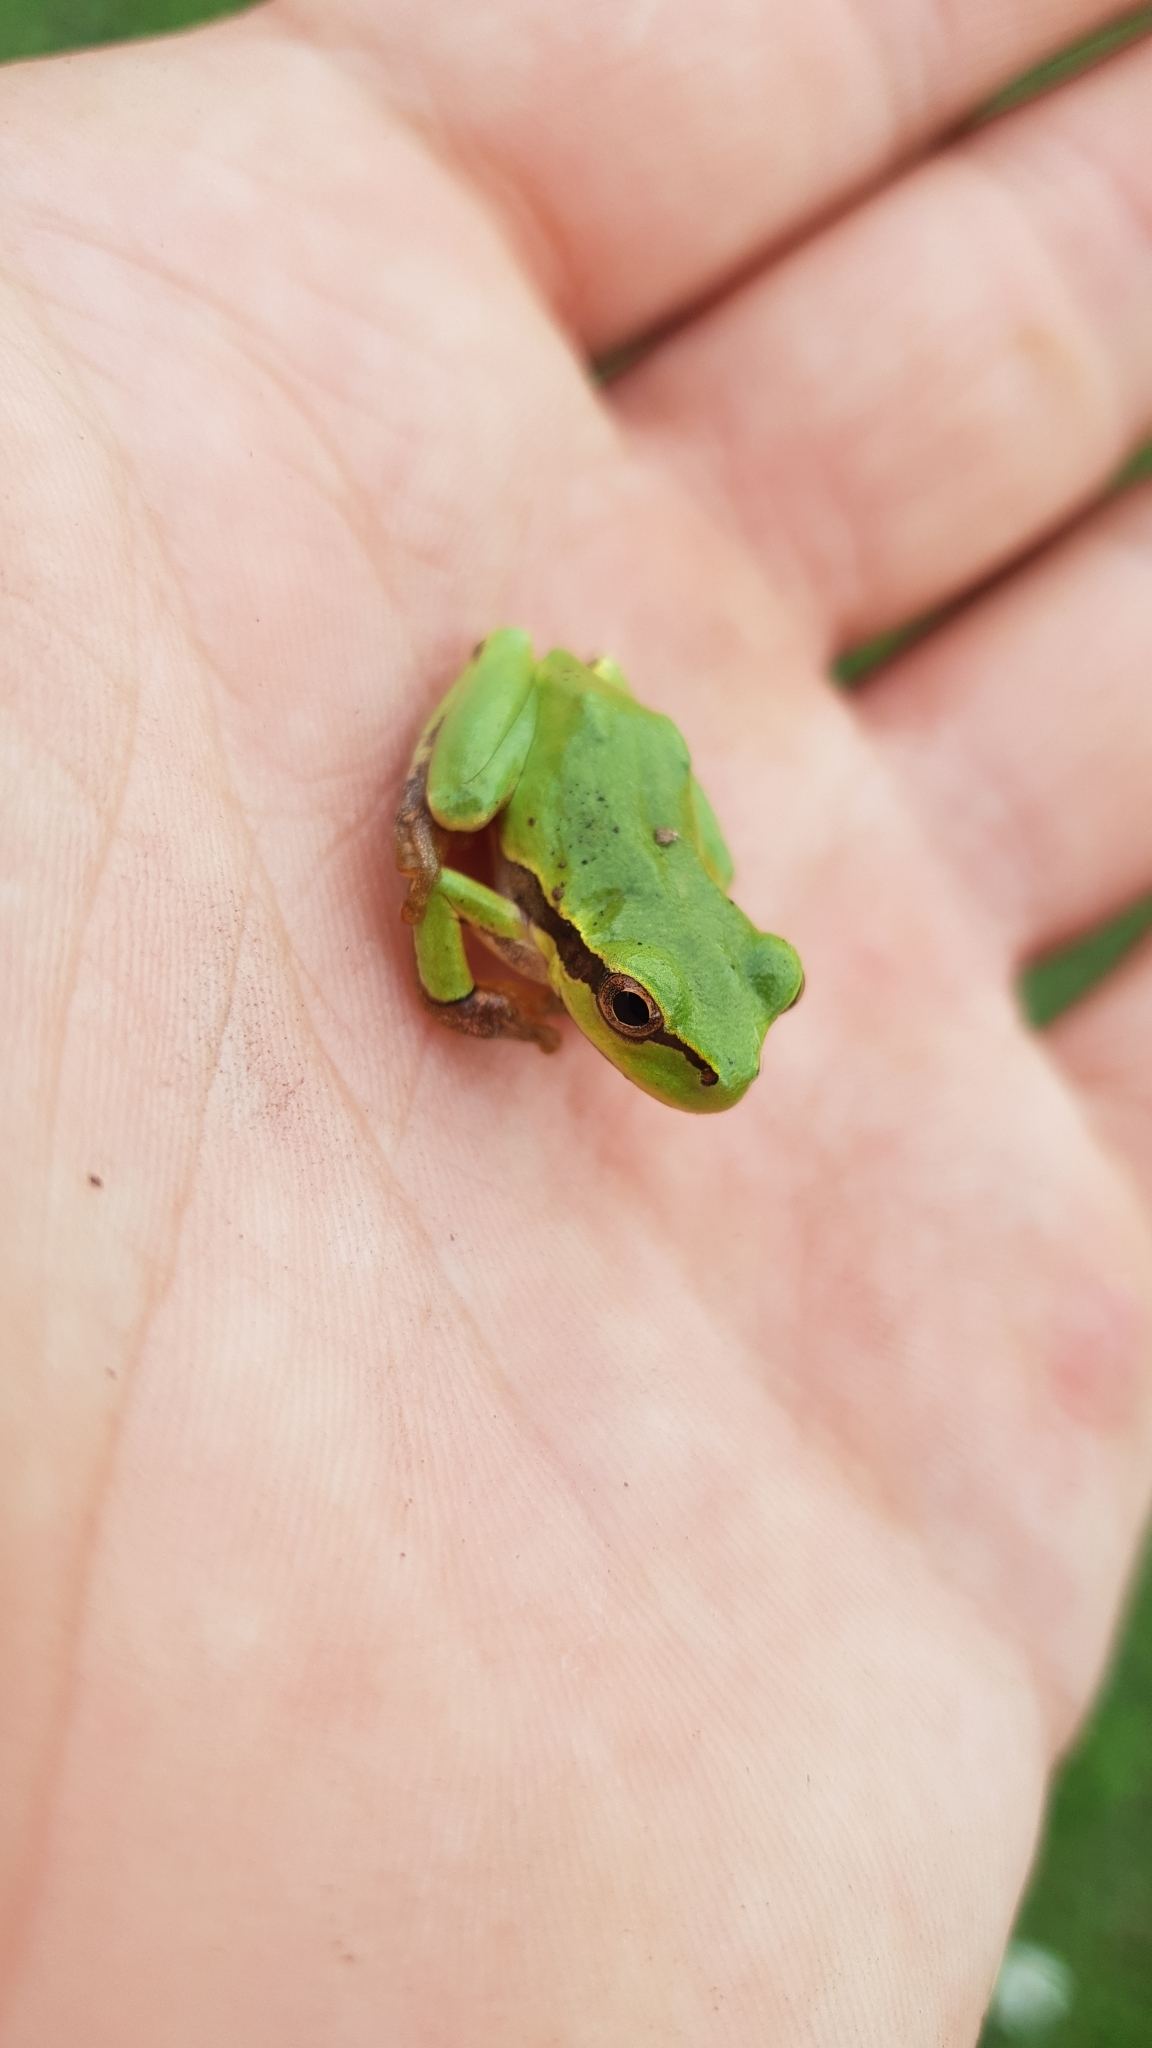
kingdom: Animalia
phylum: Chordata
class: Amphibia
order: Anura
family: Hylidae
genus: Hyla
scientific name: Hyla orientalis
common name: Caucasian treefrog
